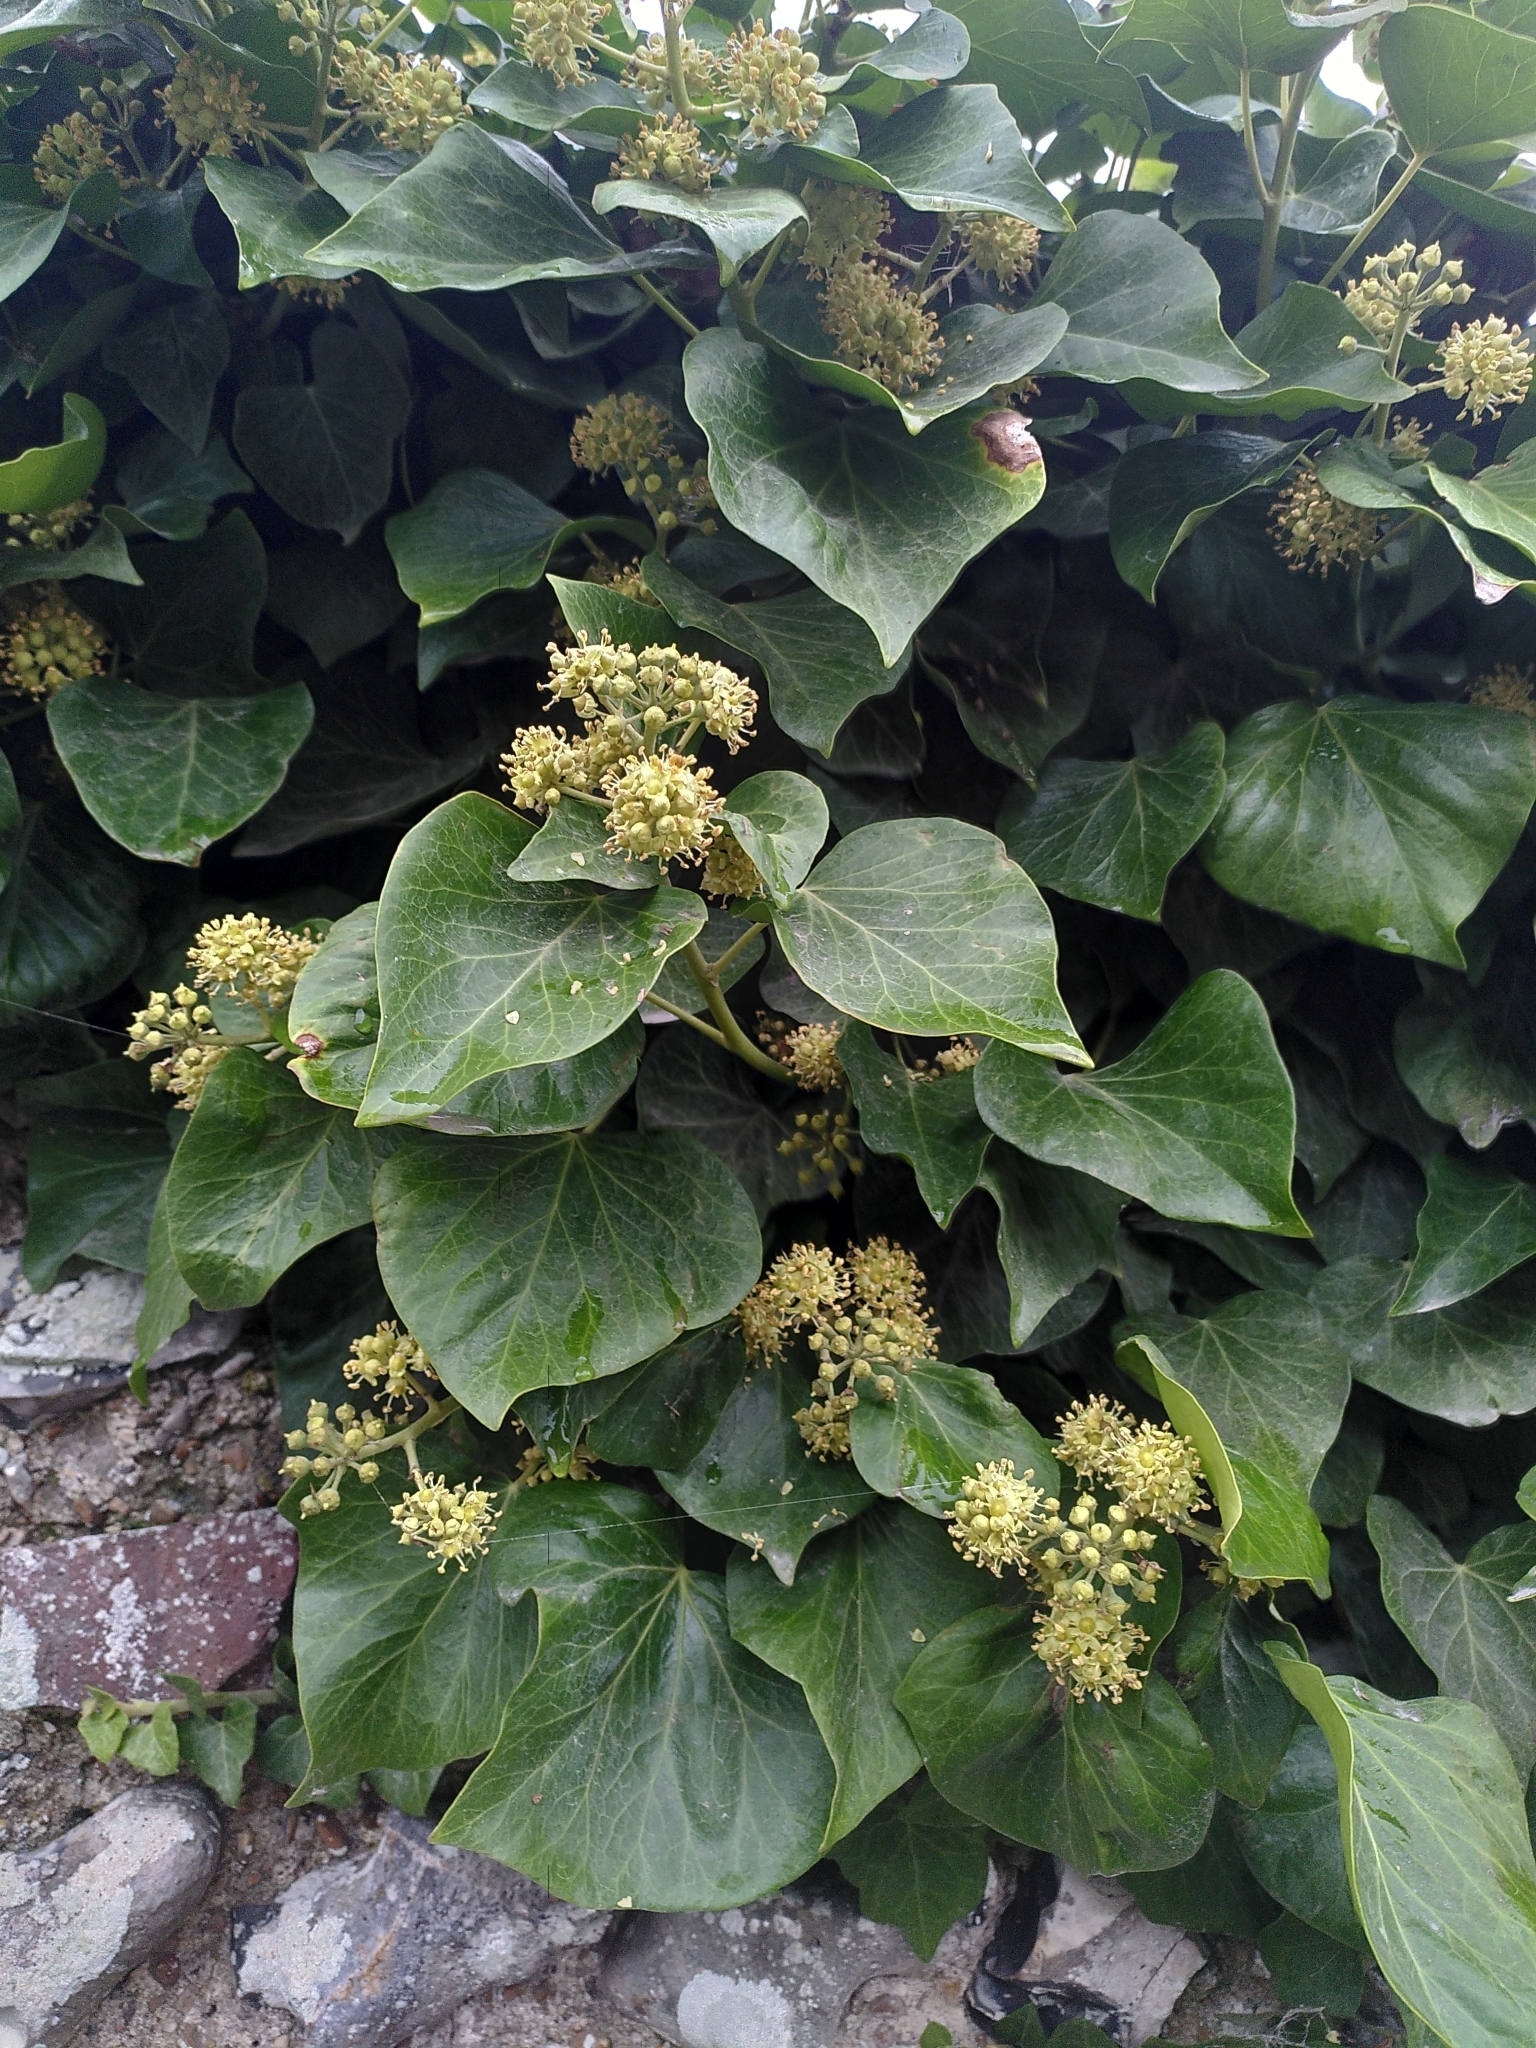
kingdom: Plantae
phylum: Tracheophyta
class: Magnoliopsida
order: Apiales
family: Araliaceae
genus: Hedera
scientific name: Hedera helix
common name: Ivy
